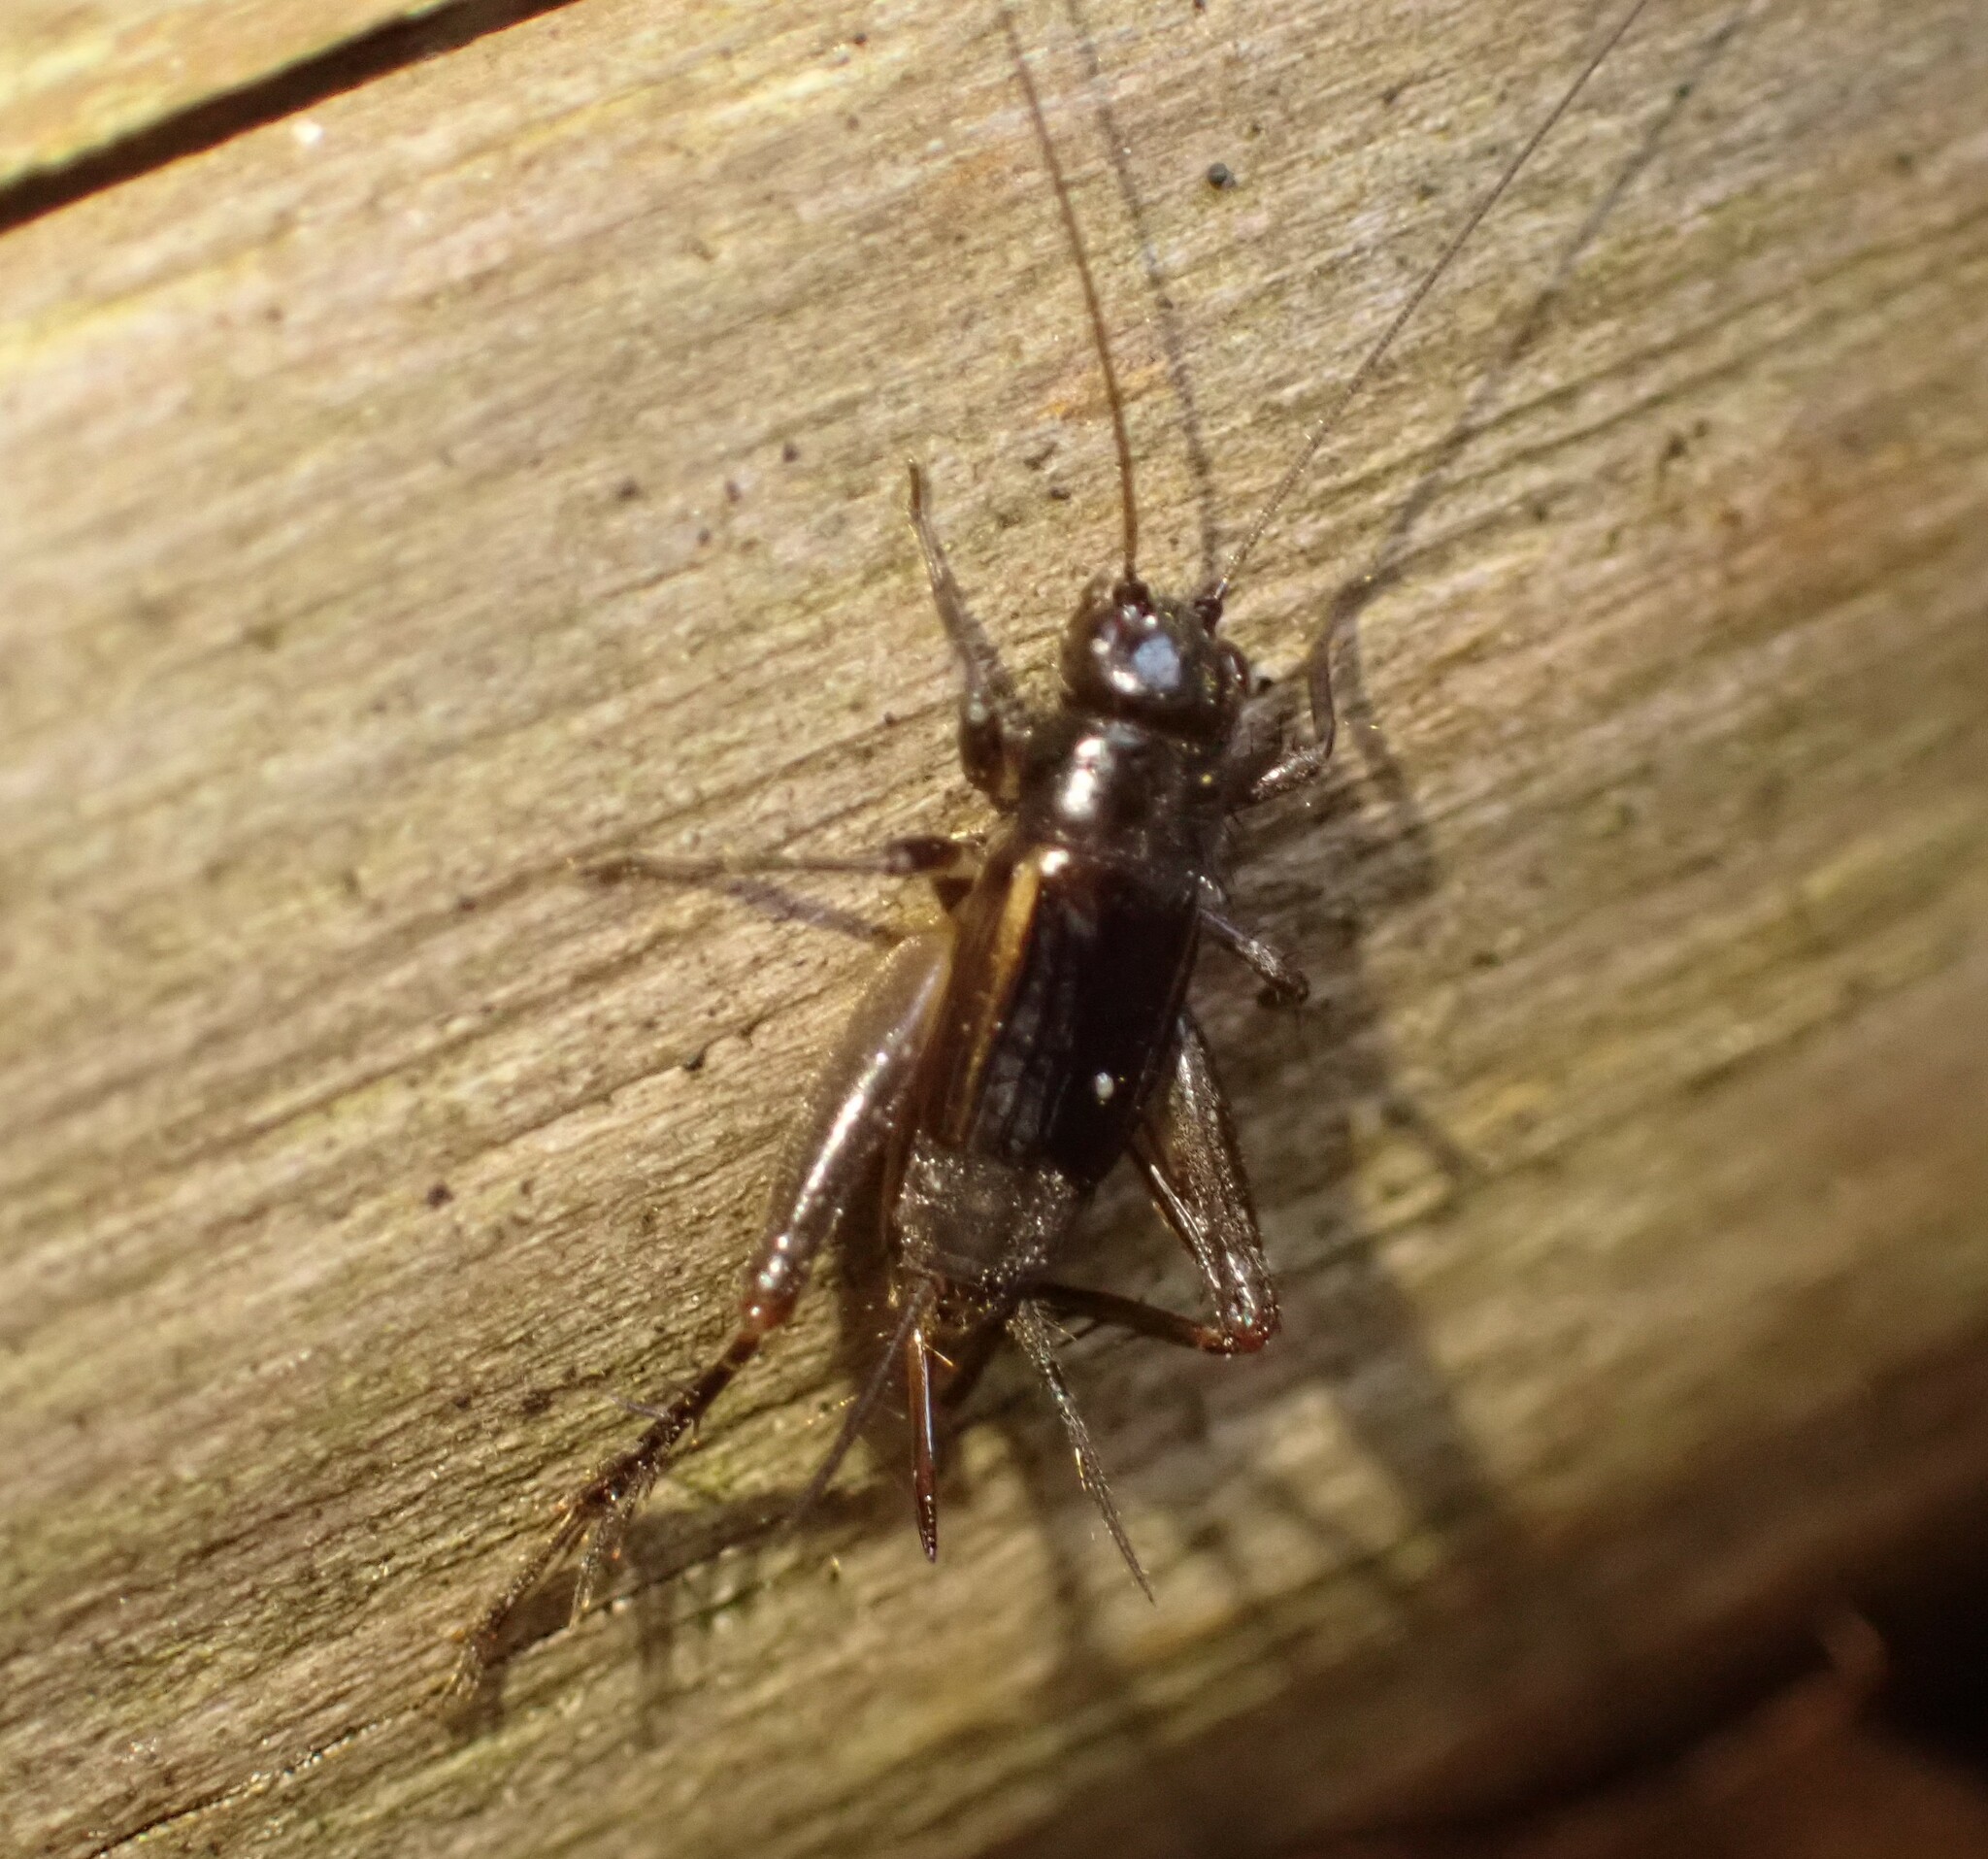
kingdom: Animalia
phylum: Arthropoda
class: Insecta
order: Orthoptera
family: Trigonidiidae
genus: Eunemobius
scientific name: Eunemobius carolinus
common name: Carolina ground cricket
